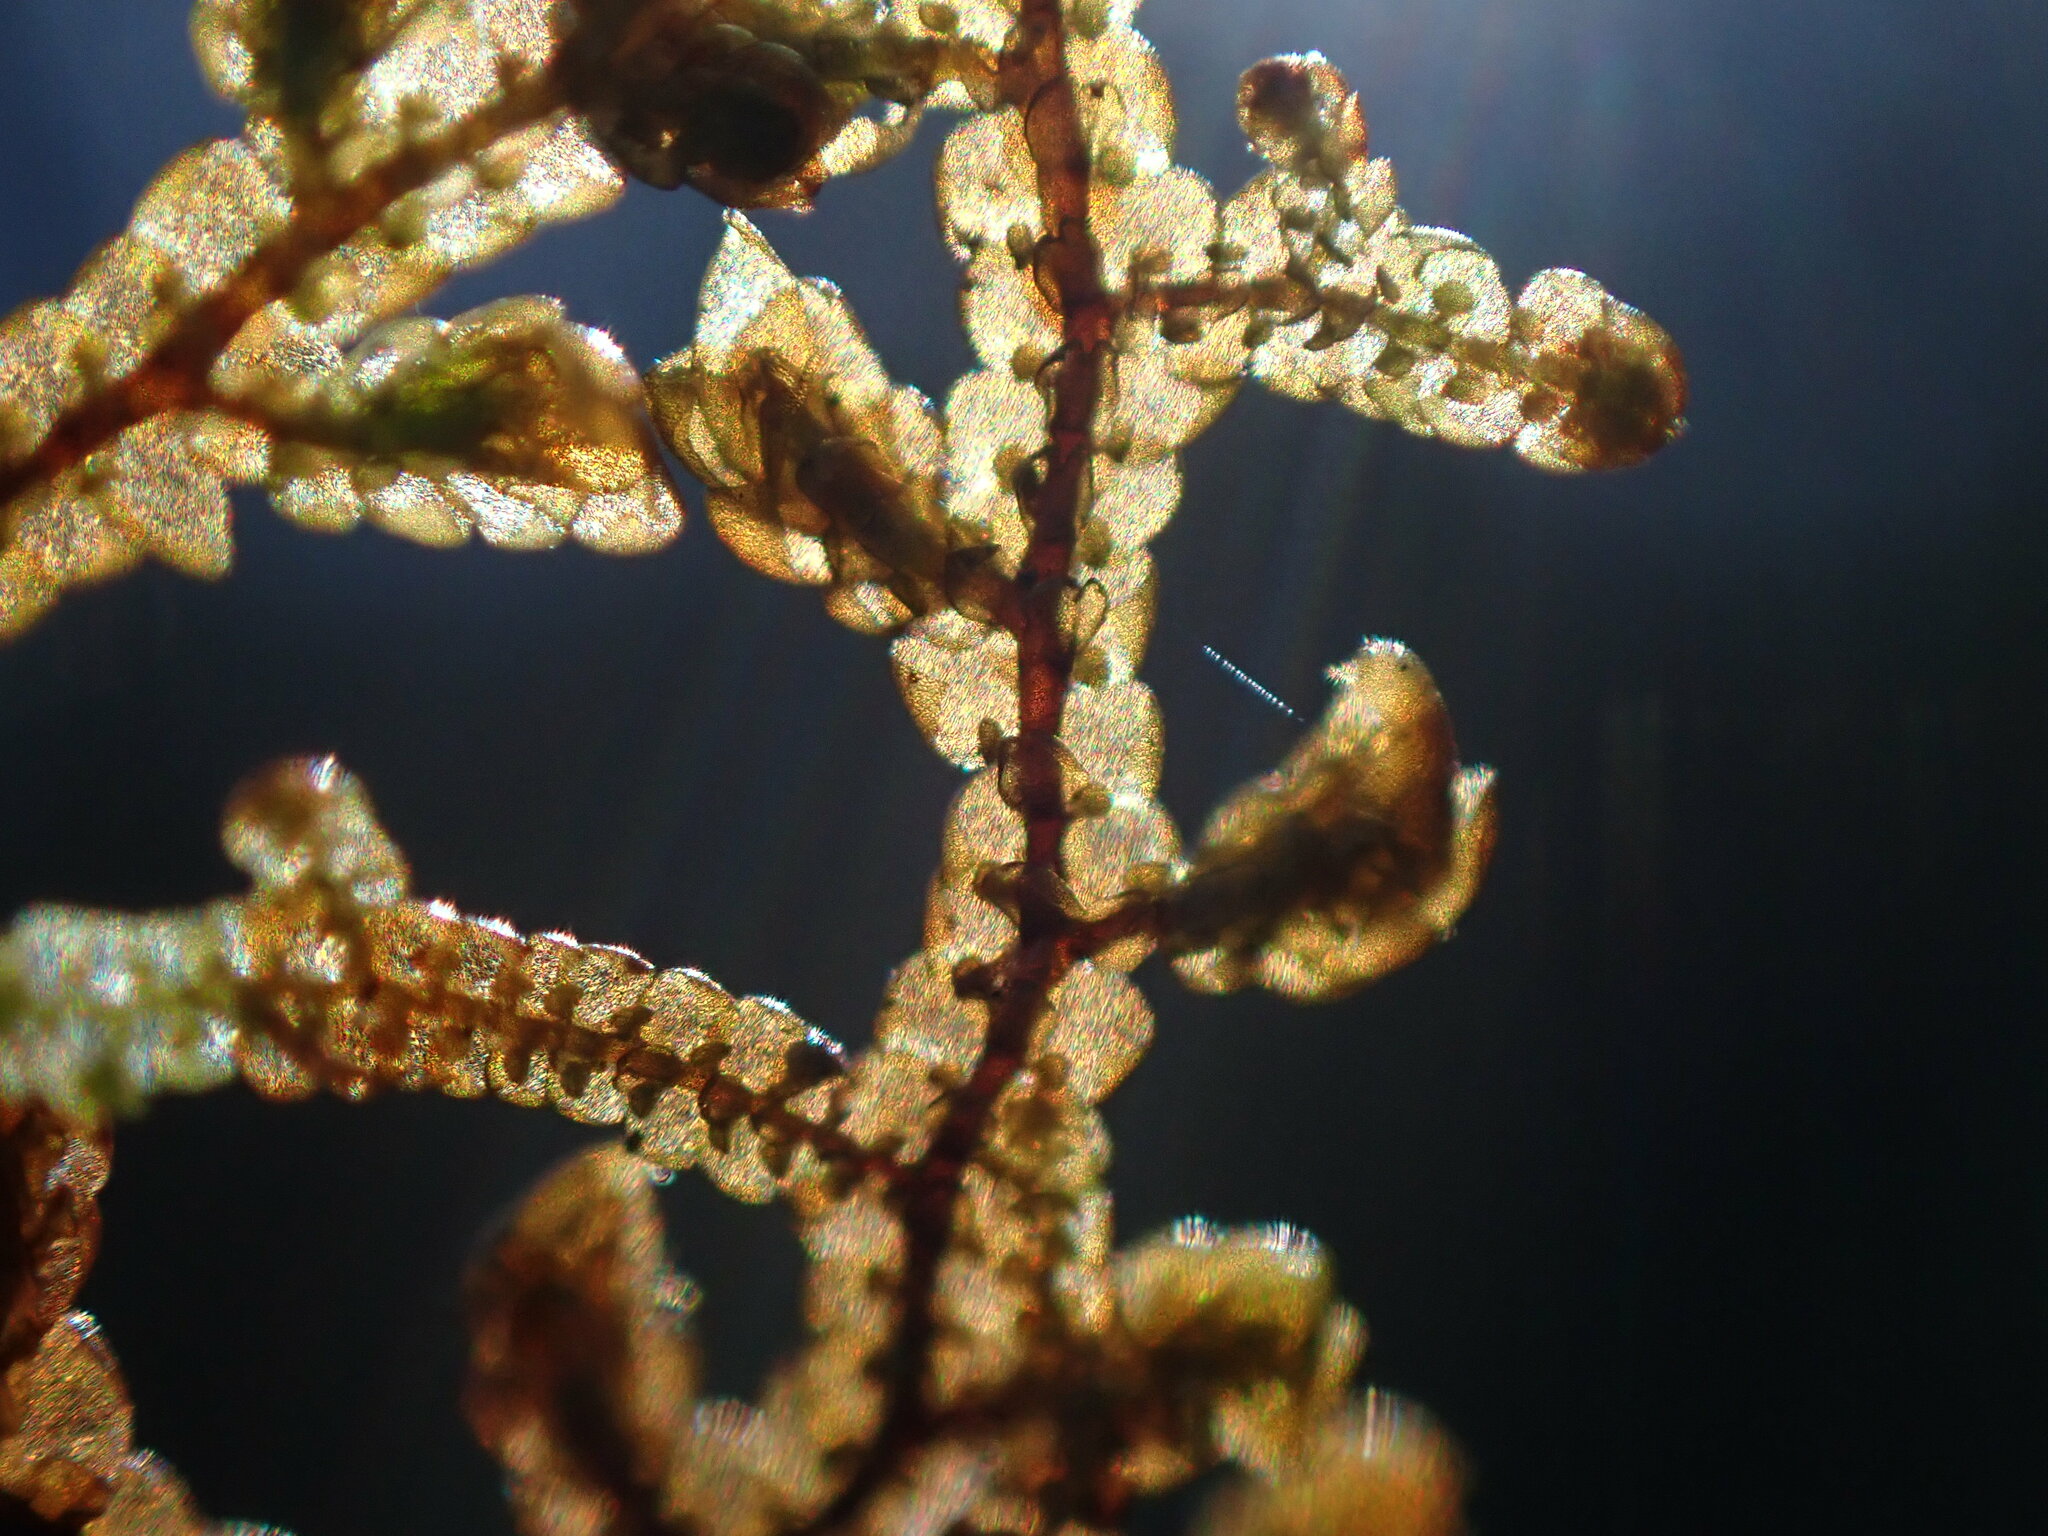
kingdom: Plantae
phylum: Marchantiophyta
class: Jungermanniopsida
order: Porellales
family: Frullaniaceae
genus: Frullania
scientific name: Frullania nisquallensis
